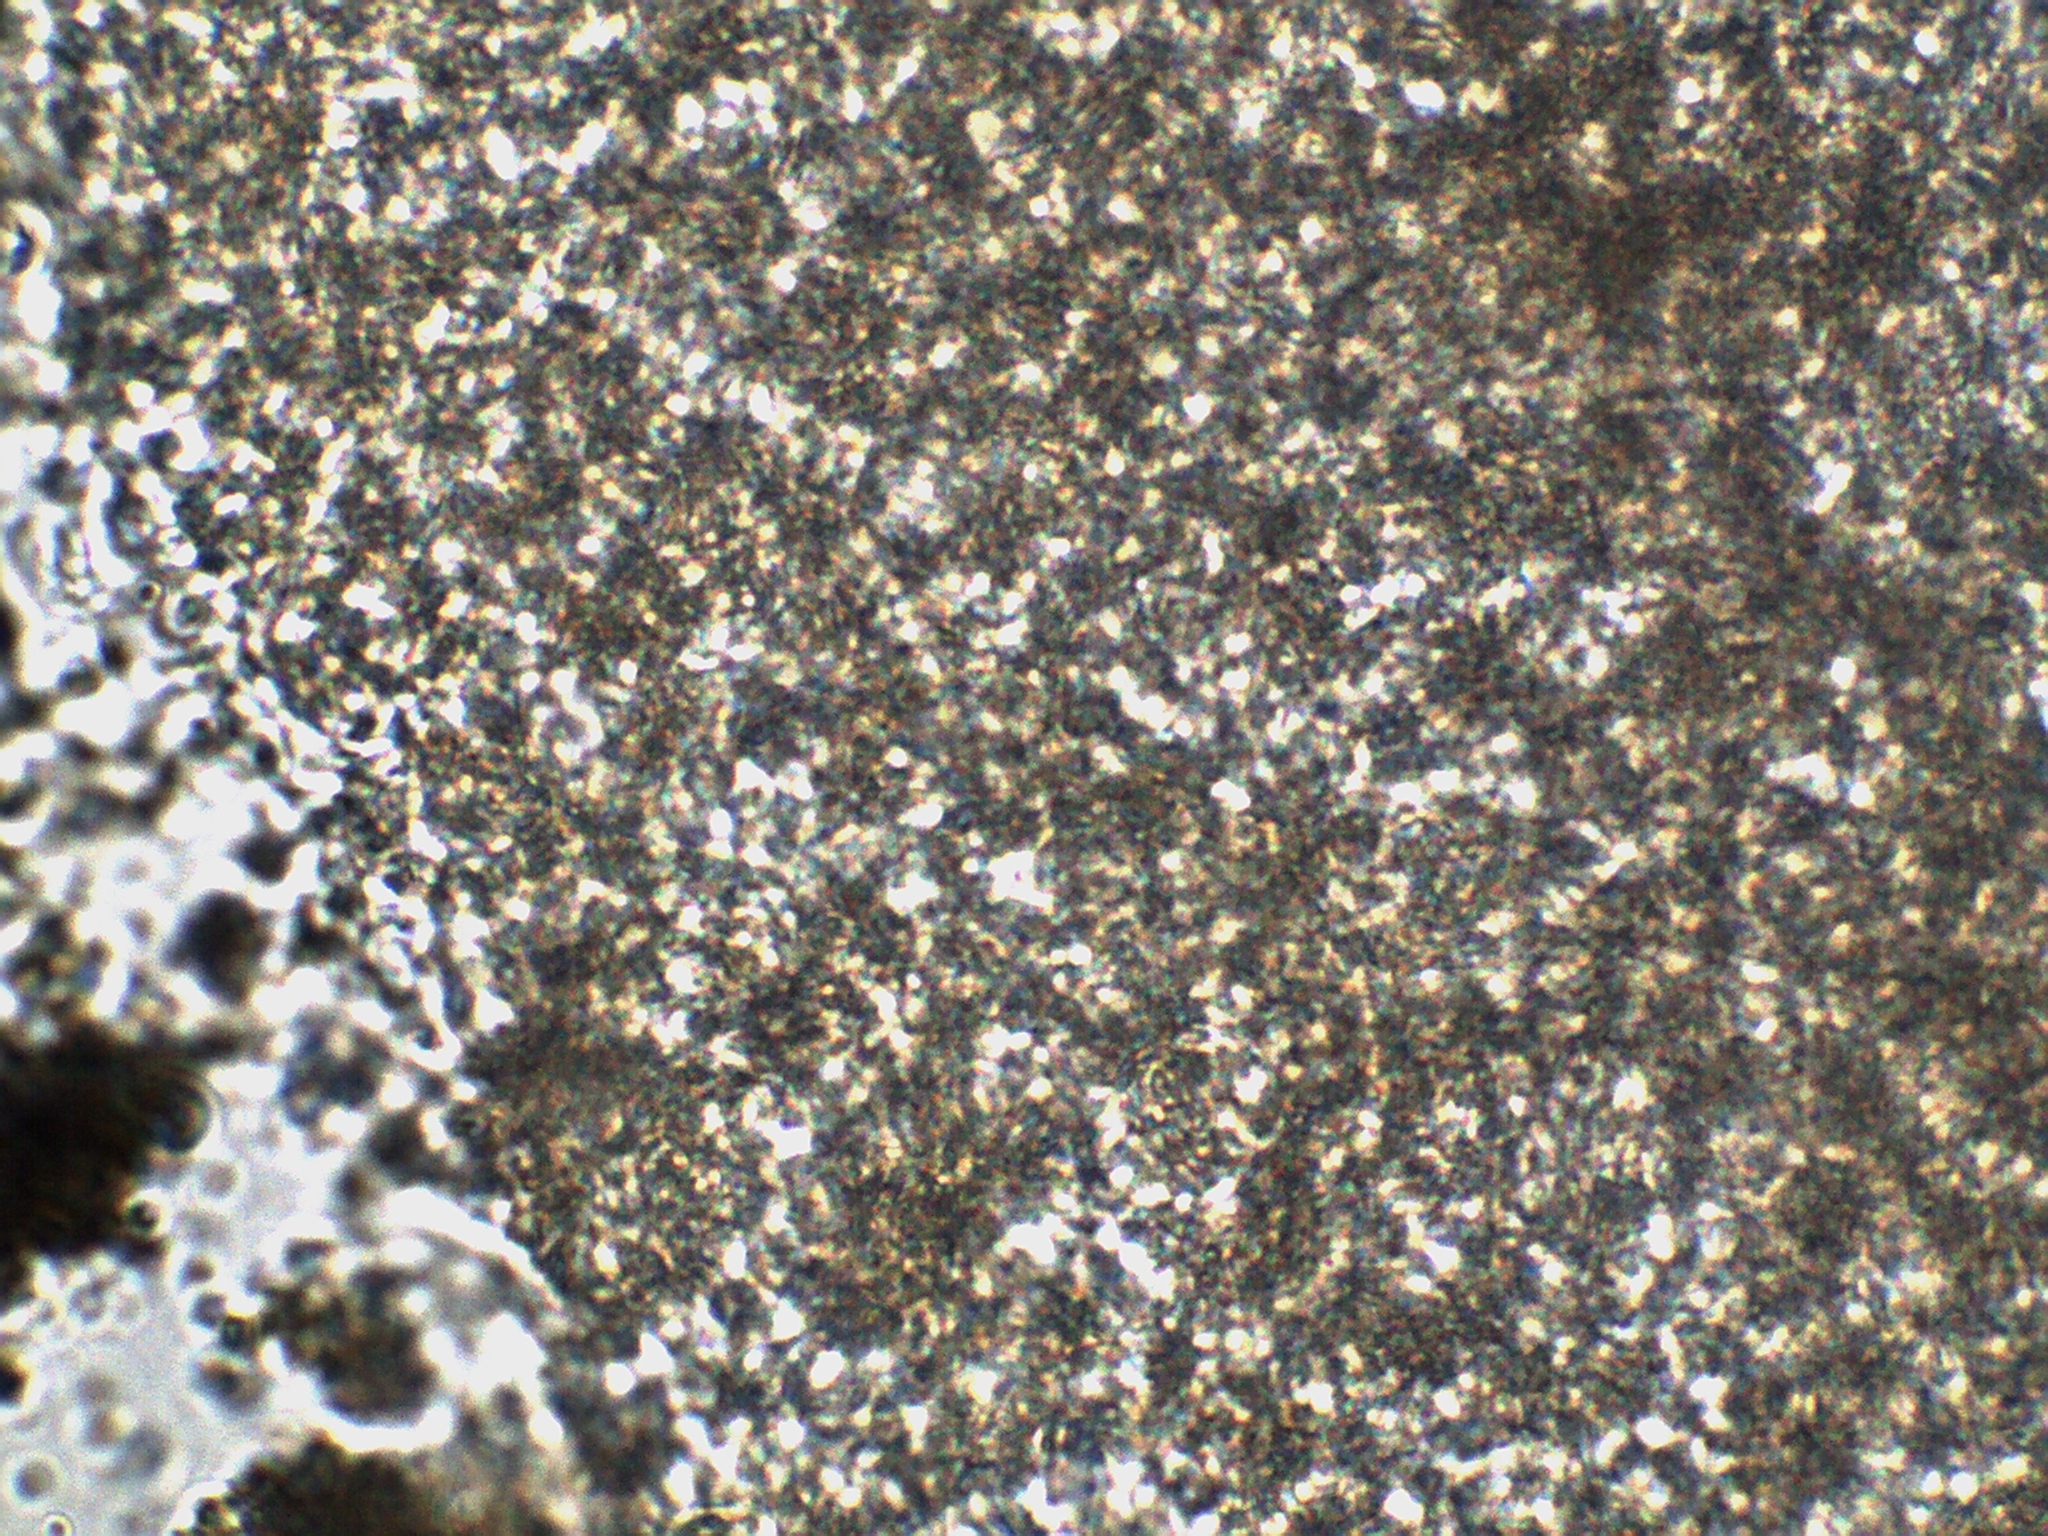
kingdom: Fungi
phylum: Basidiomycota
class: Agaricomycetes
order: Agaricales
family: Tubariaceae
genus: Cyclocybe
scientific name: Cyclocybe erebia
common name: Dark fieldcap
